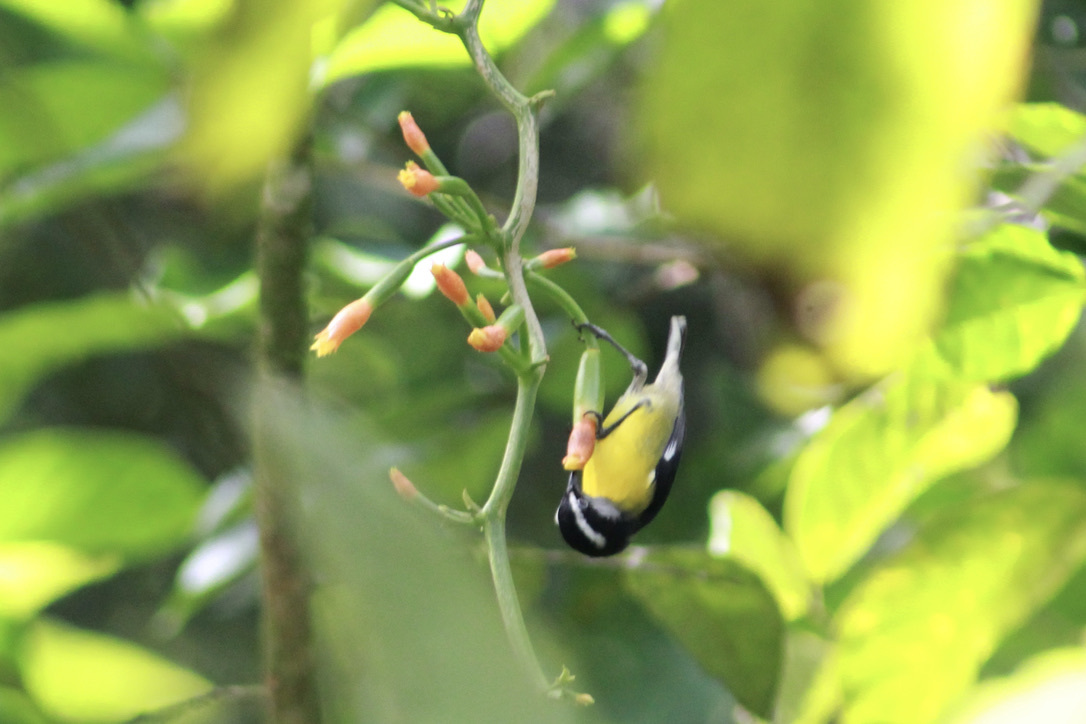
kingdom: Animalia
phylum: Chordata
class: Aves
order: Passeriformes
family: Thraupidae
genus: Coereba
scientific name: Coereba flaveola
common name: Bananaquit
